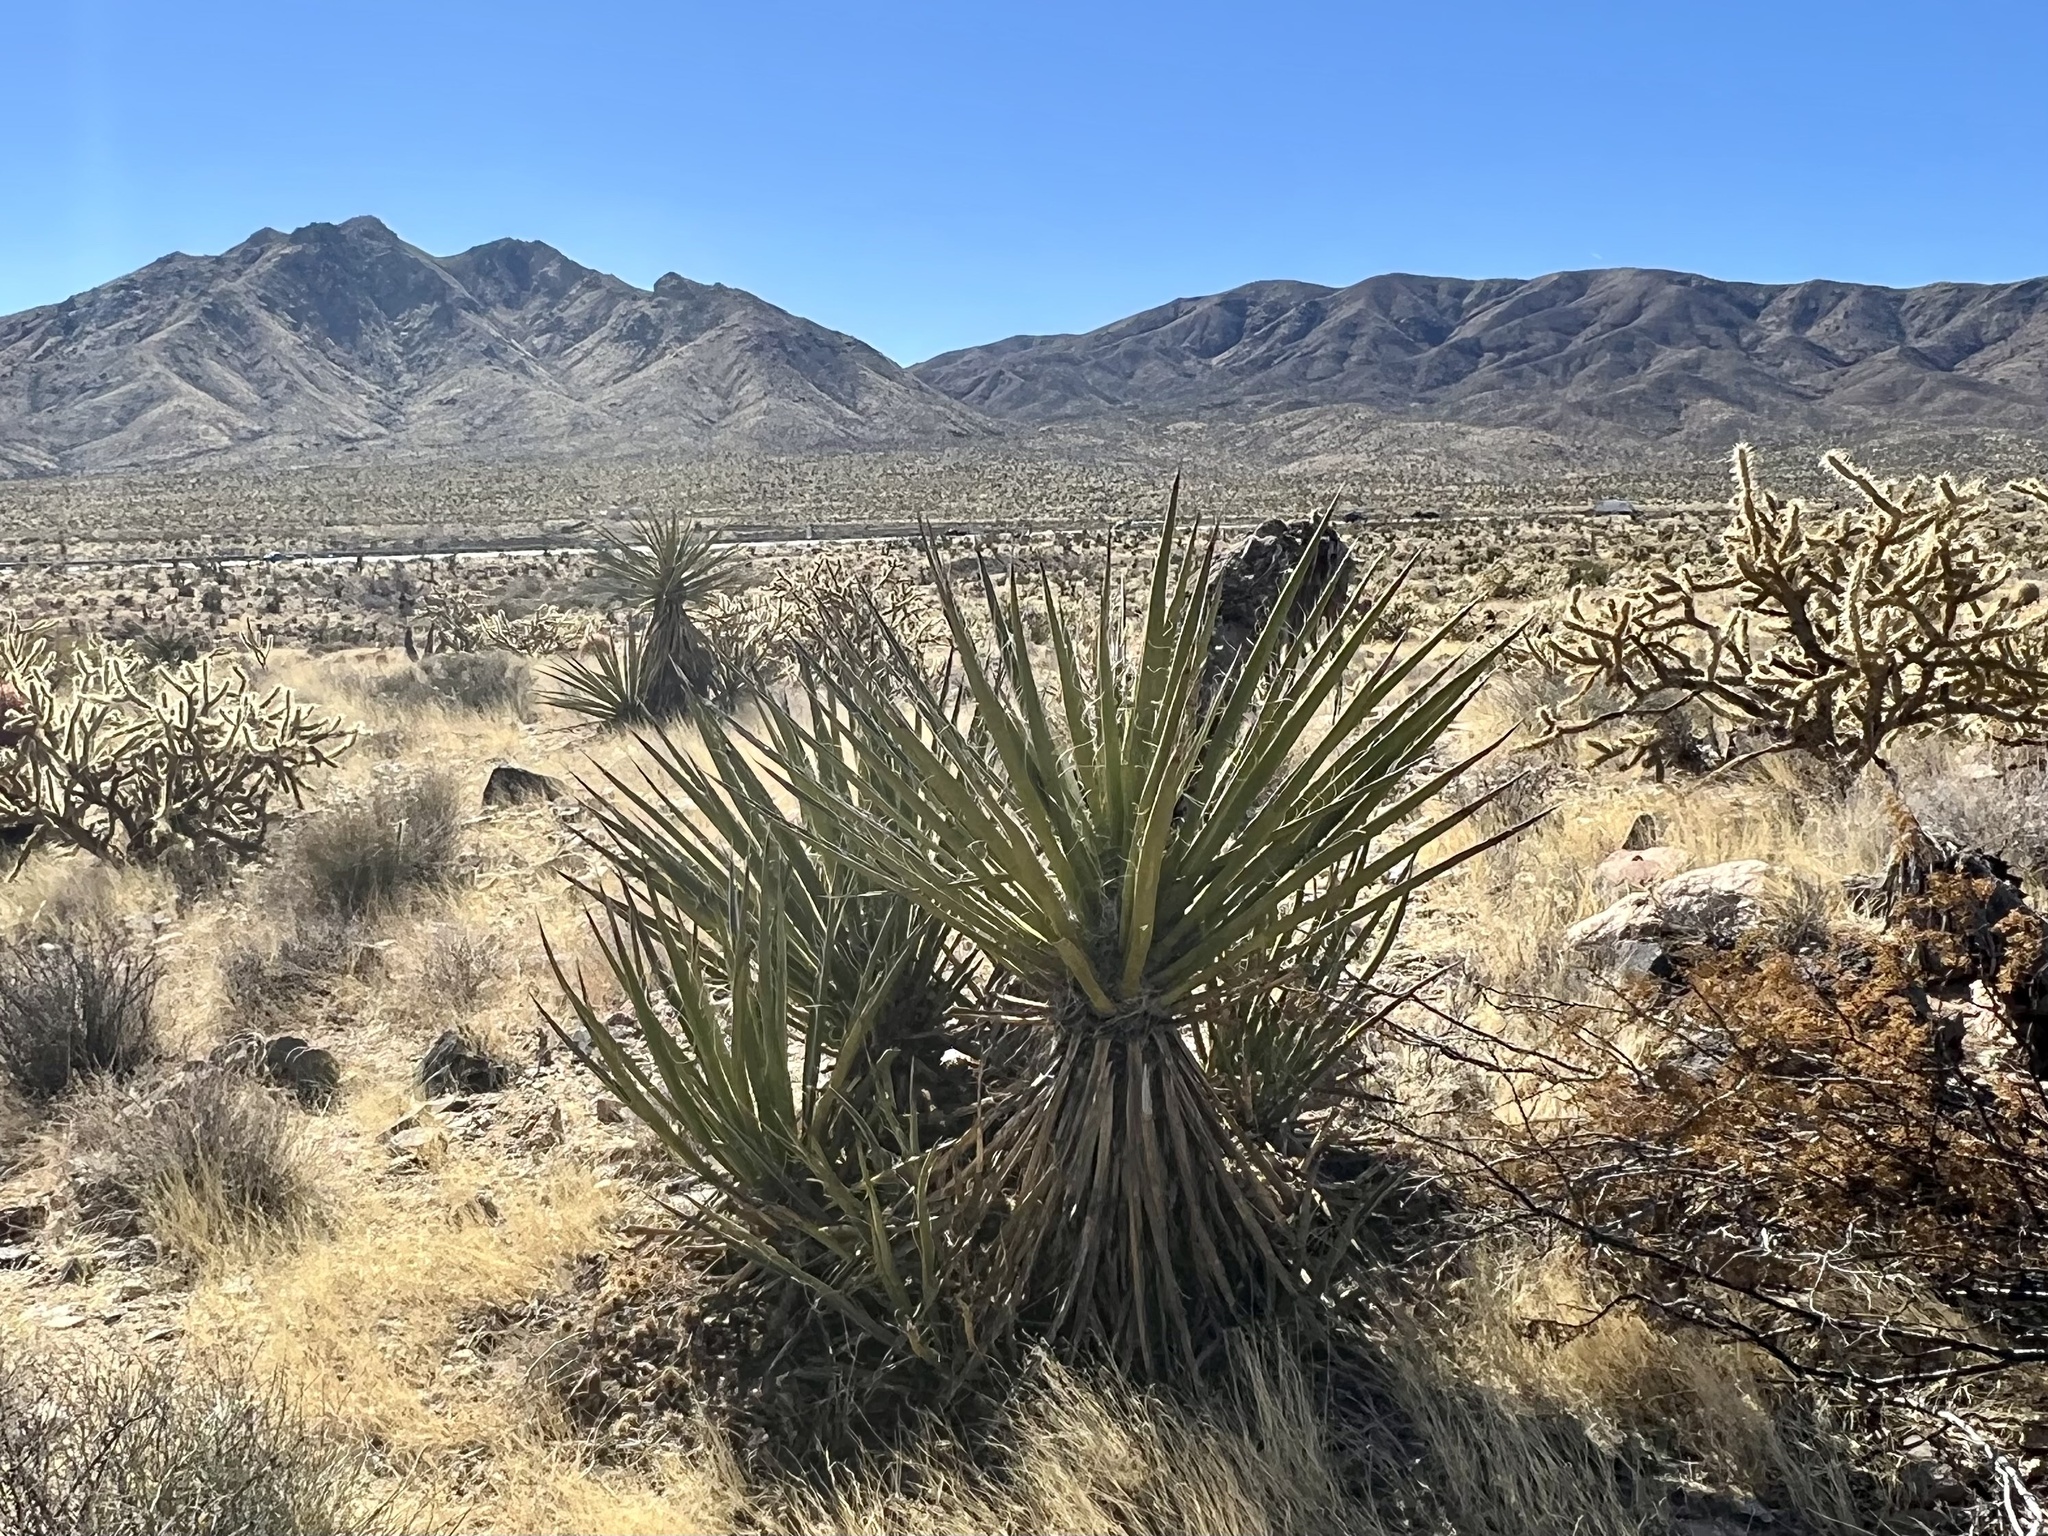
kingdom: Plantae
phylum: Tracheophyta
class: Liliopsida
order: Asparagales
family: Asparagaceae
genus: Yucca
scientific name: Yucca schidigera
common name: Mojave yucca
